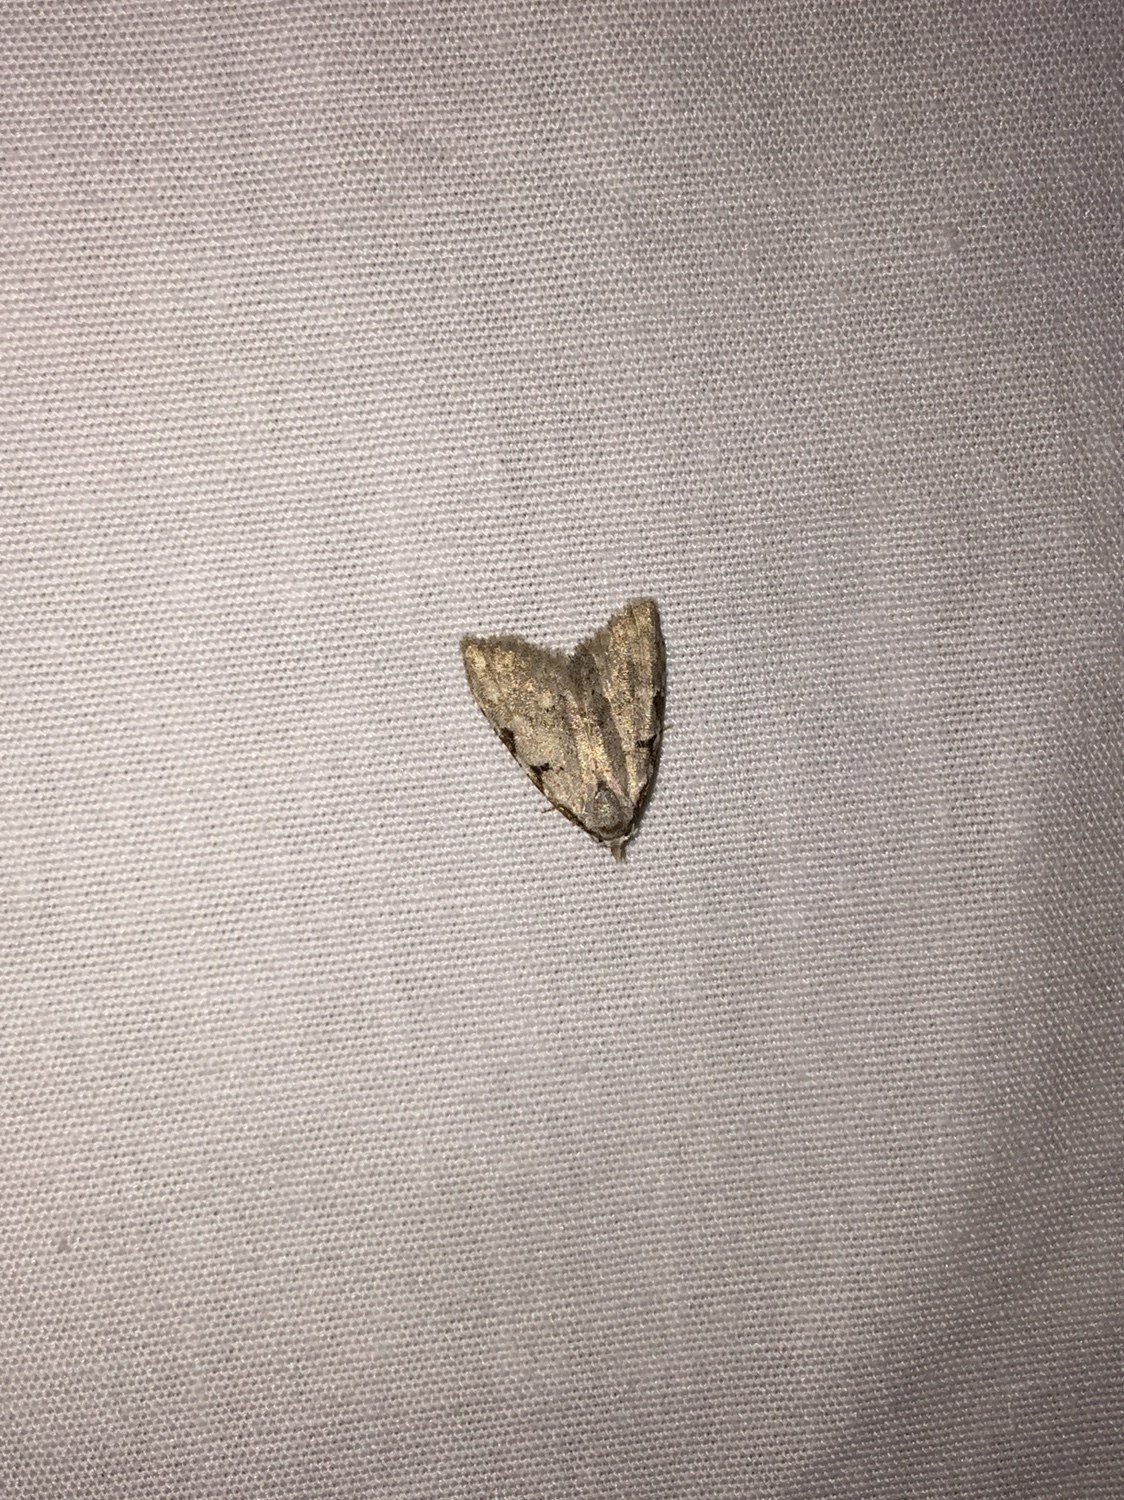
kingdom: Animalia
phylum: Arthropoda
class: Insecta
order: Lepidoptera
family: Nolidae
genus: Nola
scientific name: Nola triquetrana
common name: Three-spotted nola moth
